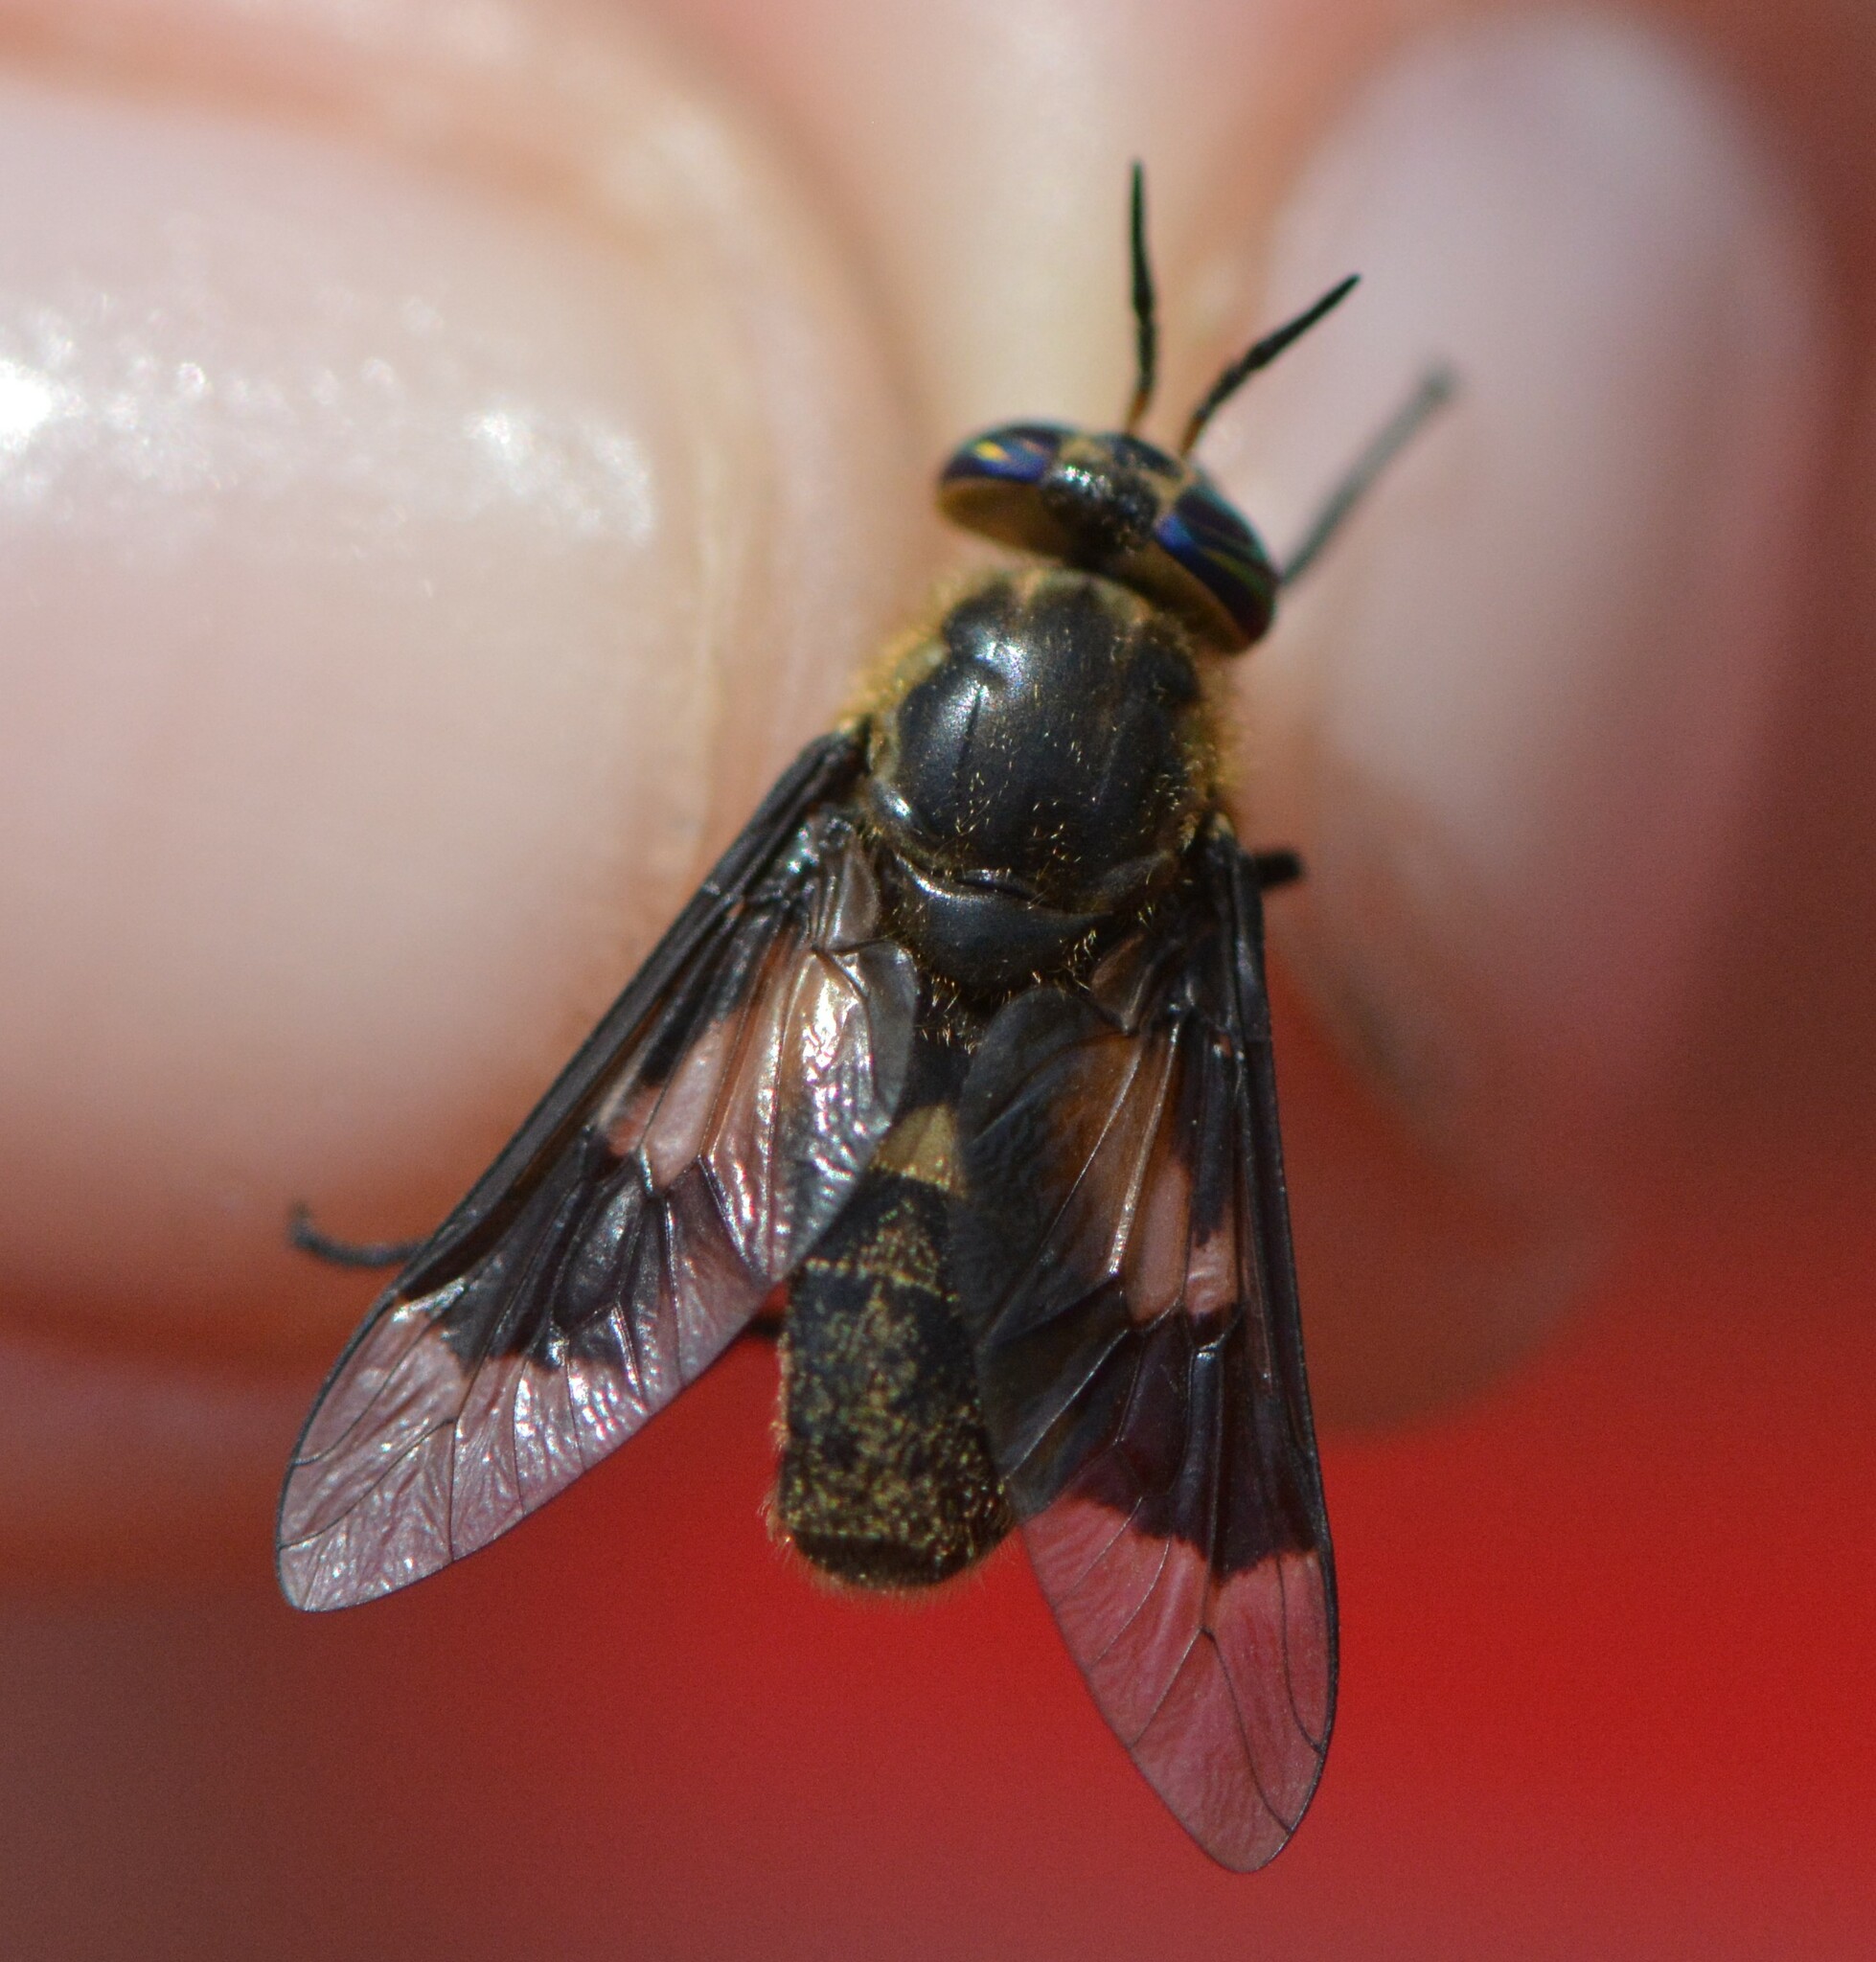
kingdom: Animalia
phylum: Arthropoda
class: Insecta
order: Diptera
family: Tabanidae
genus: Chrysops
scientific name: Chrysops excitans
